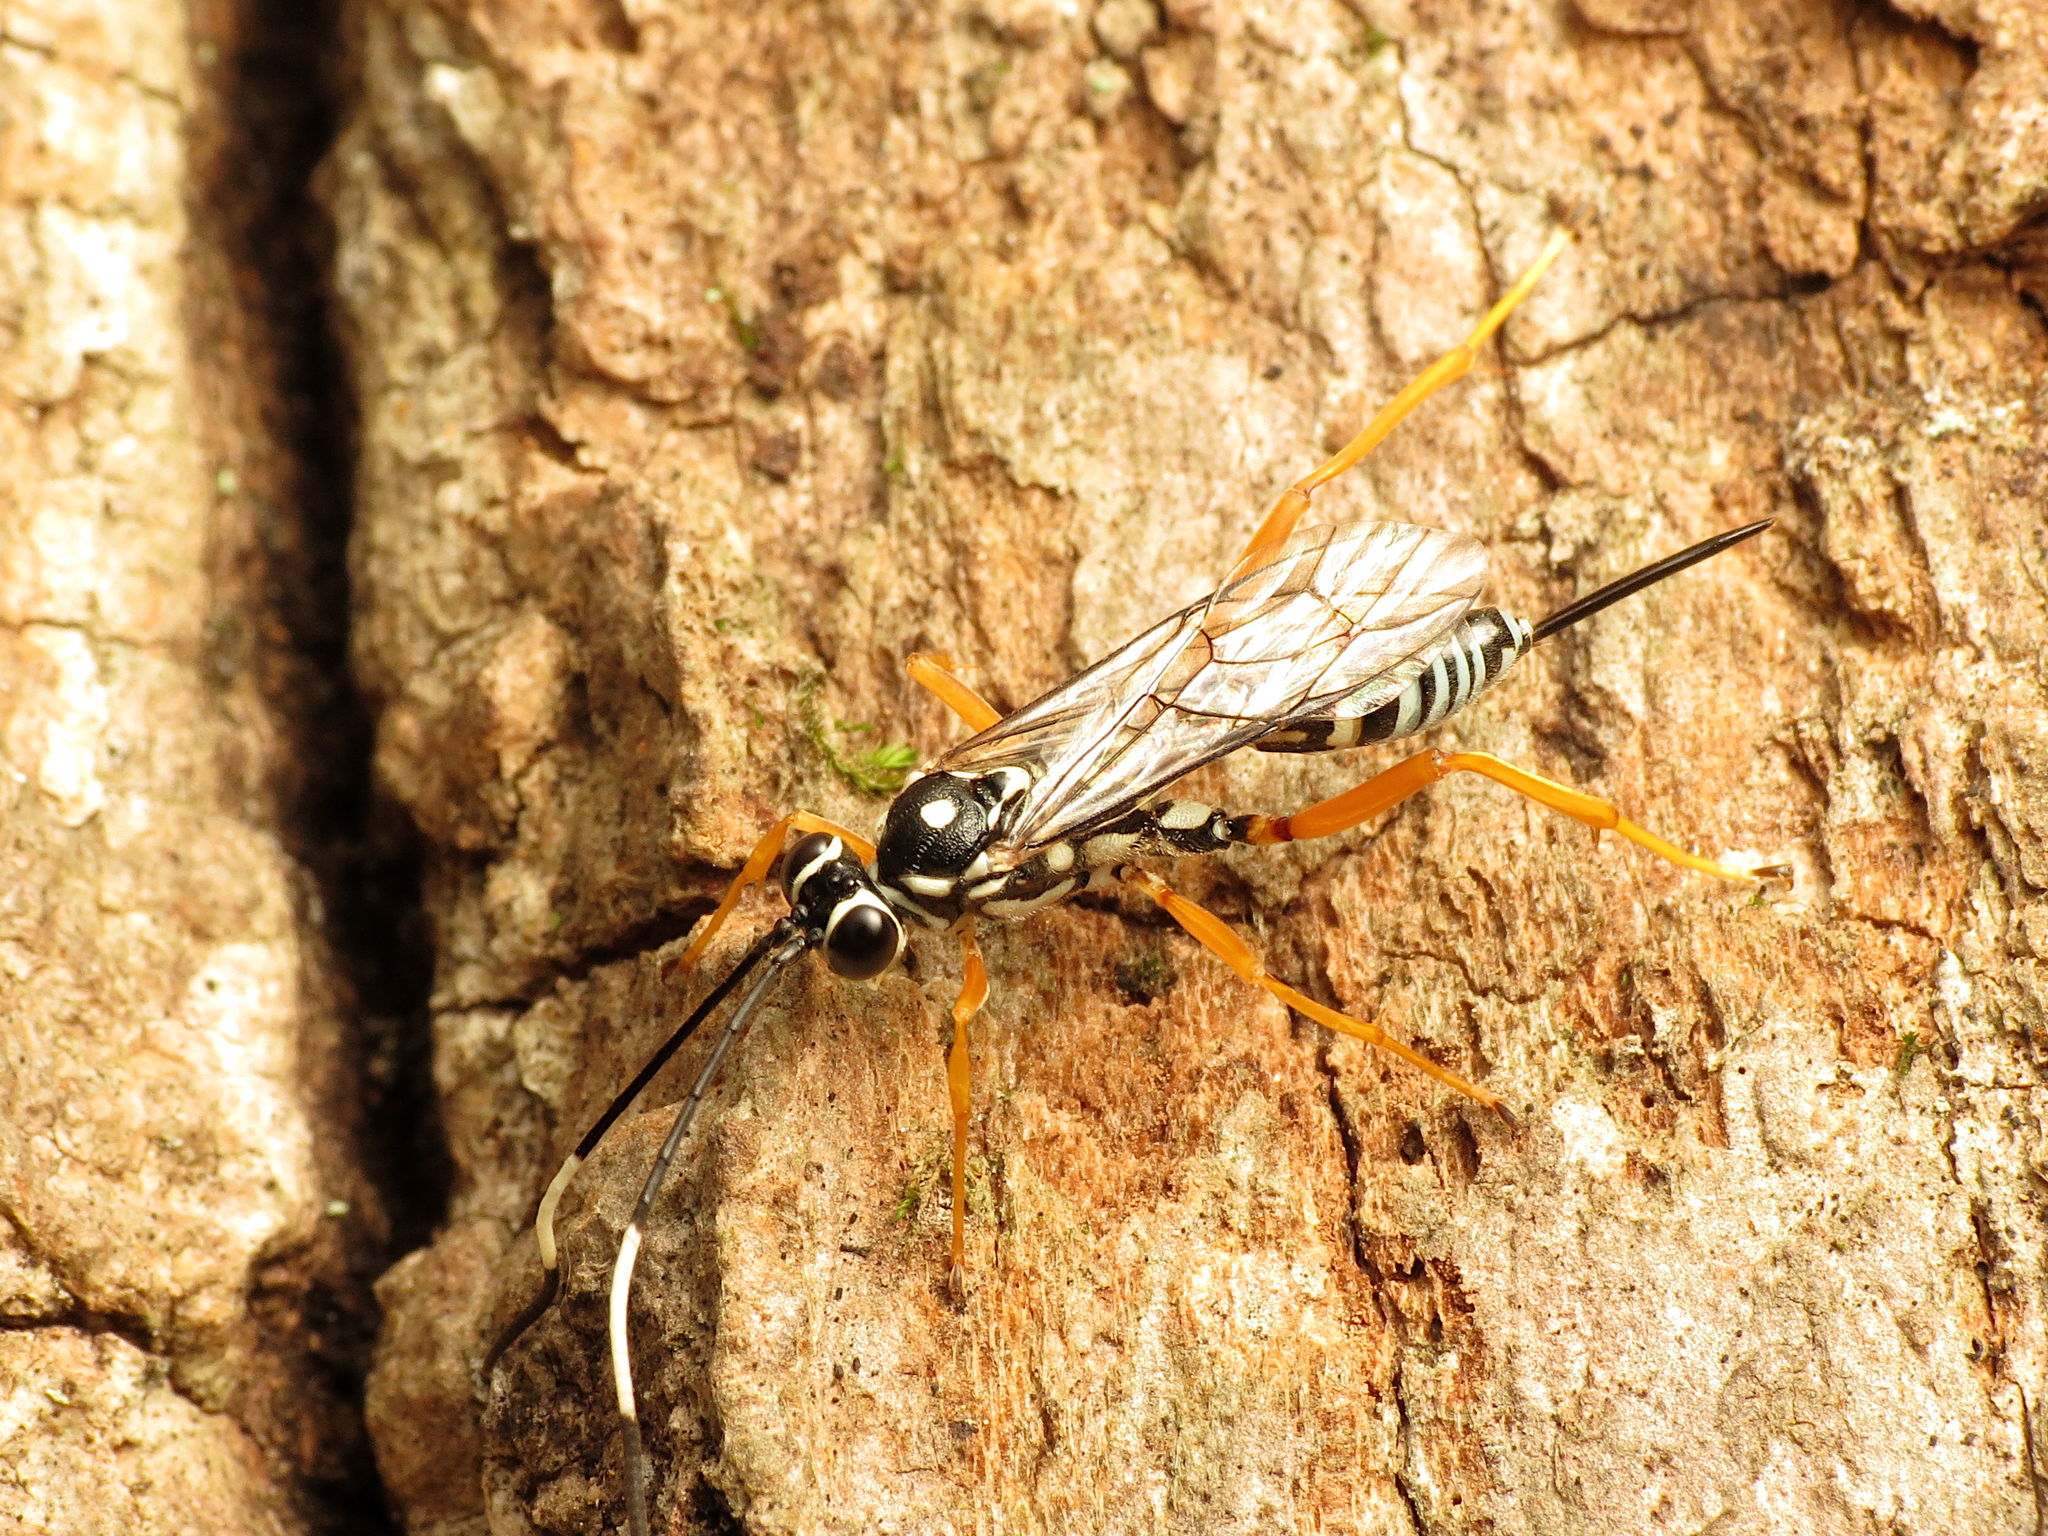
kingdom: Animalia
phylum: Arthropoda
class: Insecta
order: Hymenoptera
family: Ichneumonidae
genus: Cryptanura
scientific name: Cryptanura septentrionalis
